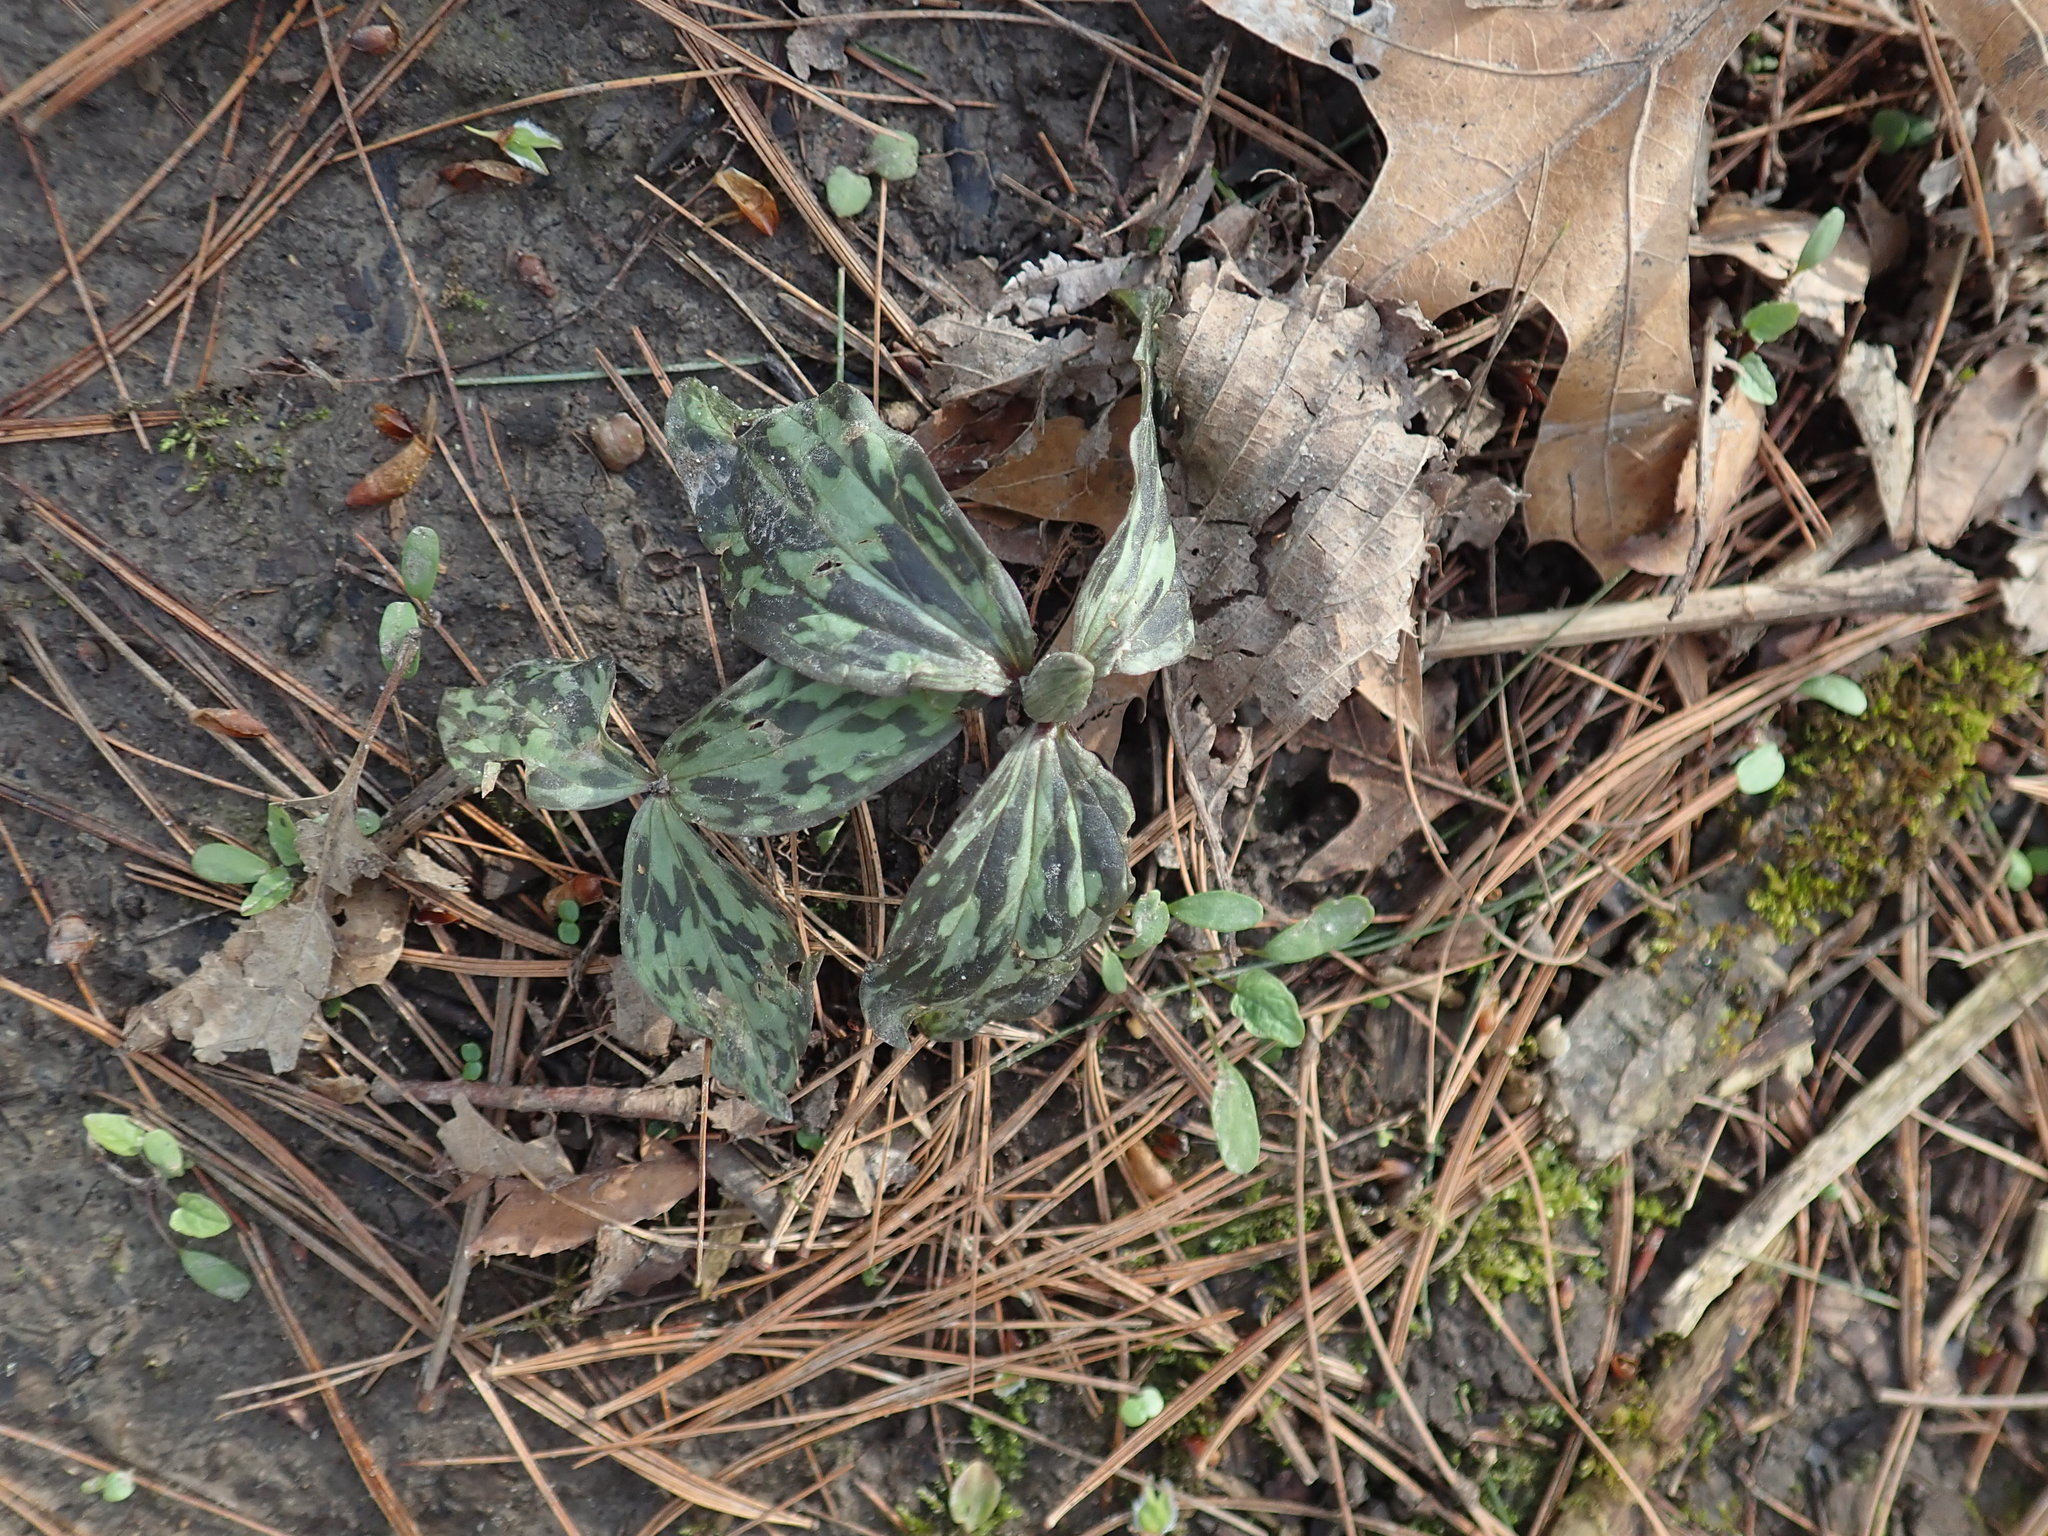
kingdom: Plantae
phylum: Tracheophyta
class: Liliopsida
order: Liliales
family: Melanthiaceae
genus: Trillium
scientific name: Trillium recurvatum
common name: Bloody butcher
